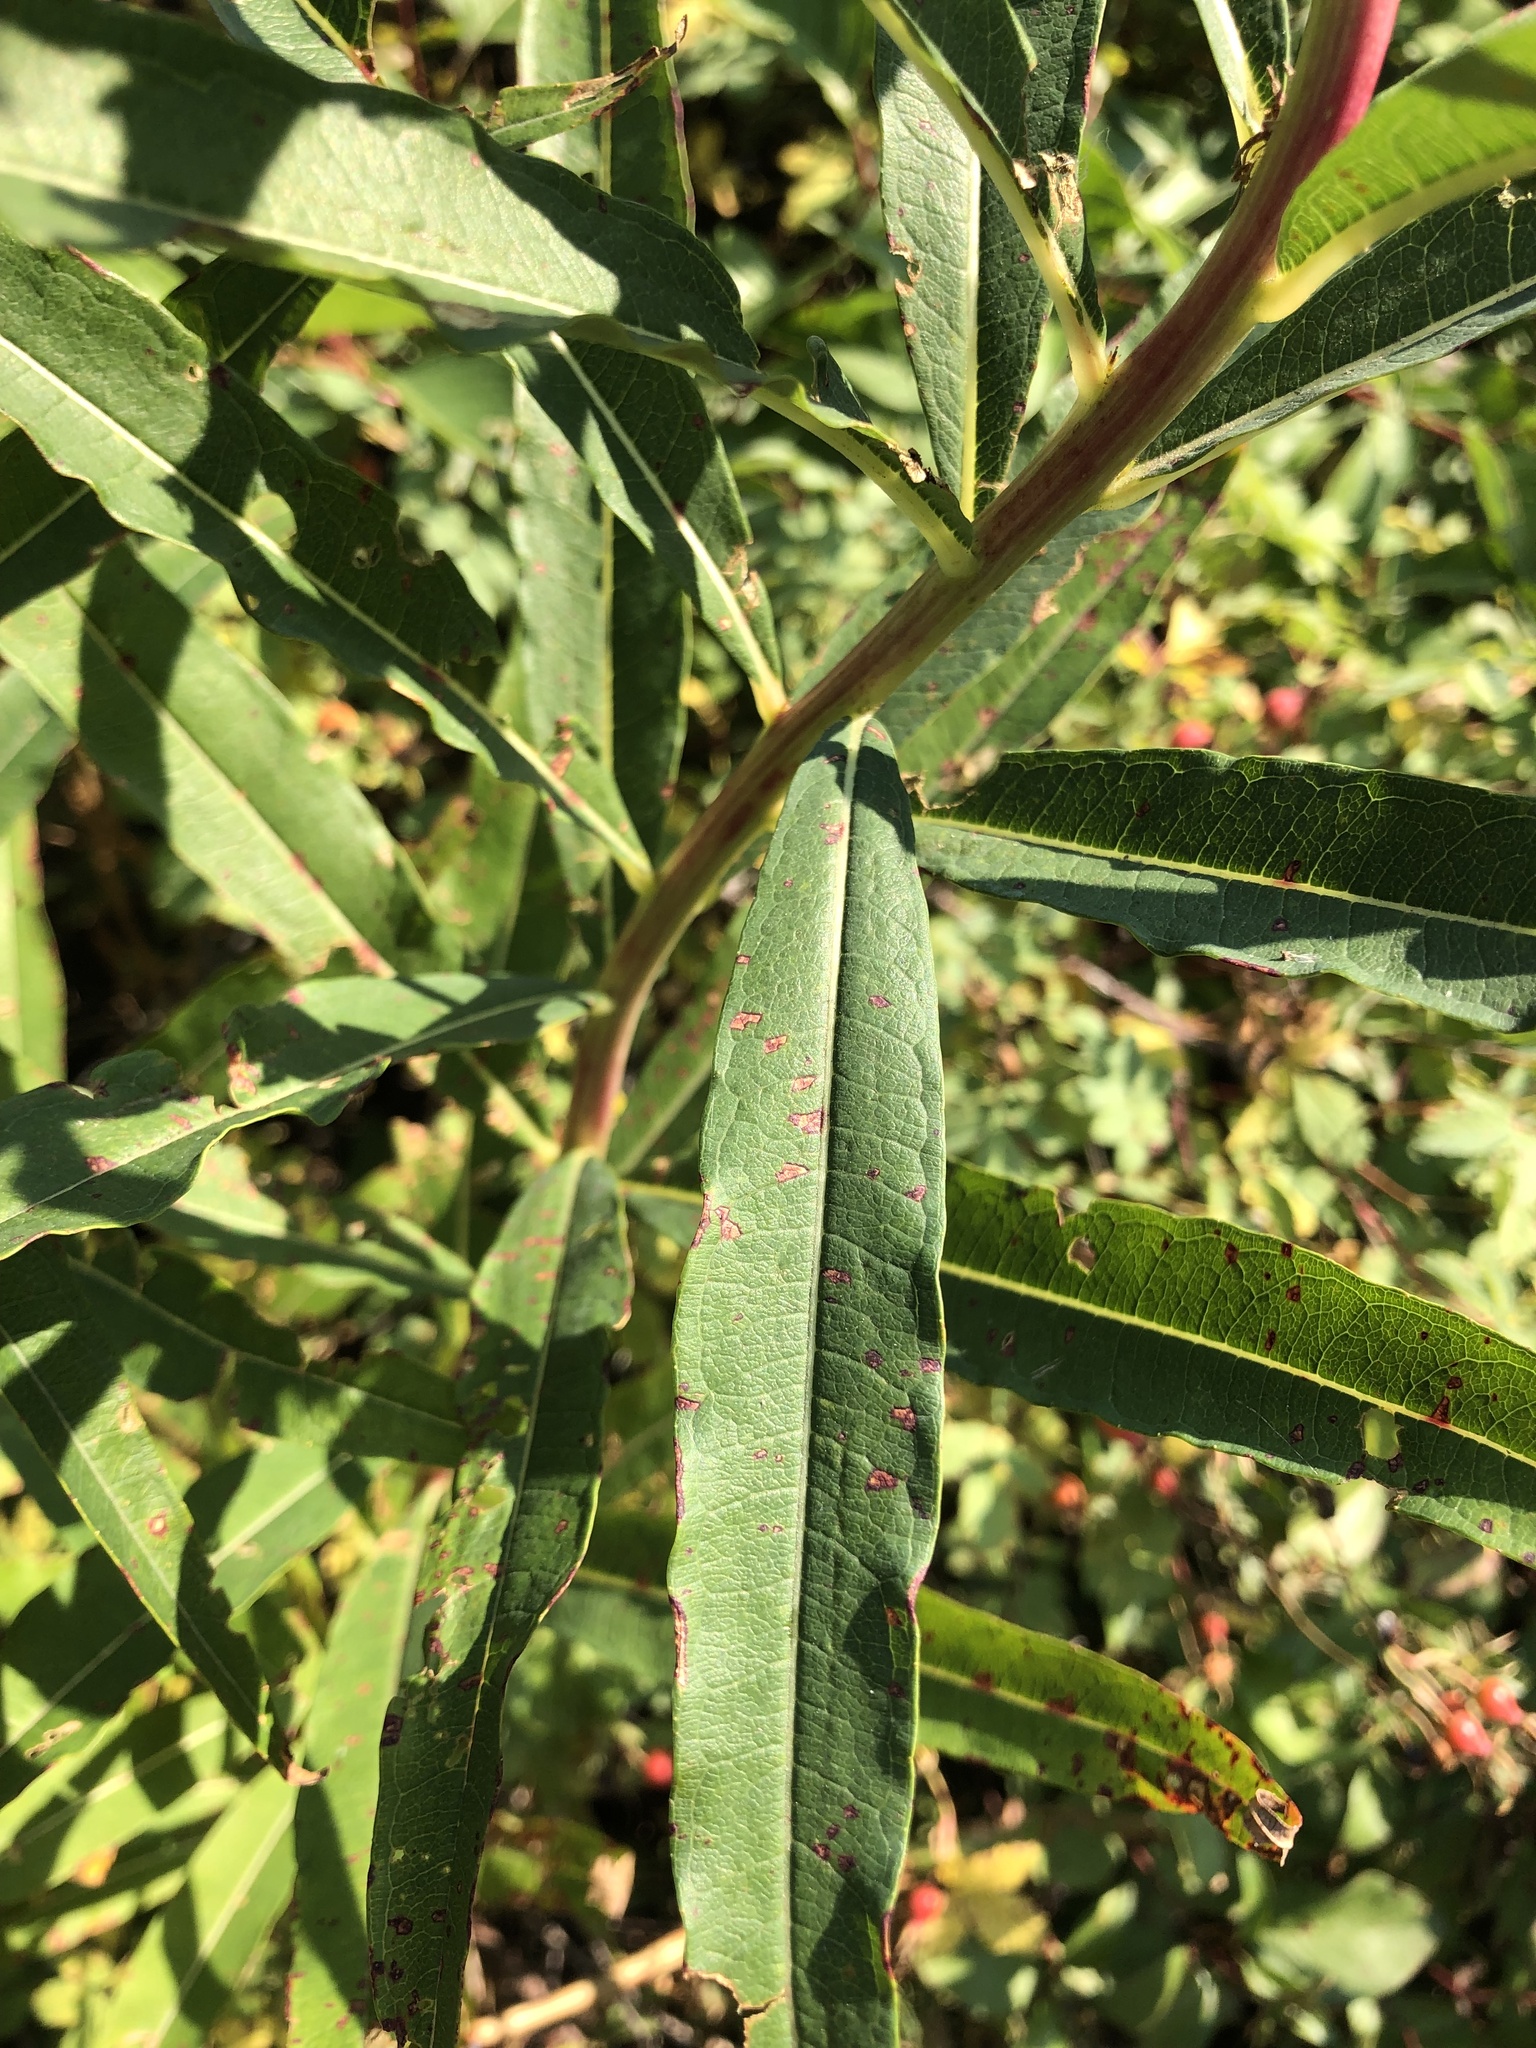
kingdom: Plantae
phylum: Tracheophyta
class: Magnoliopsida
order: Myrtales
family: Onagraceae
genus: Chamaenerion
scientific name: Chamaenerion angustifolium
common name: Fireweed
